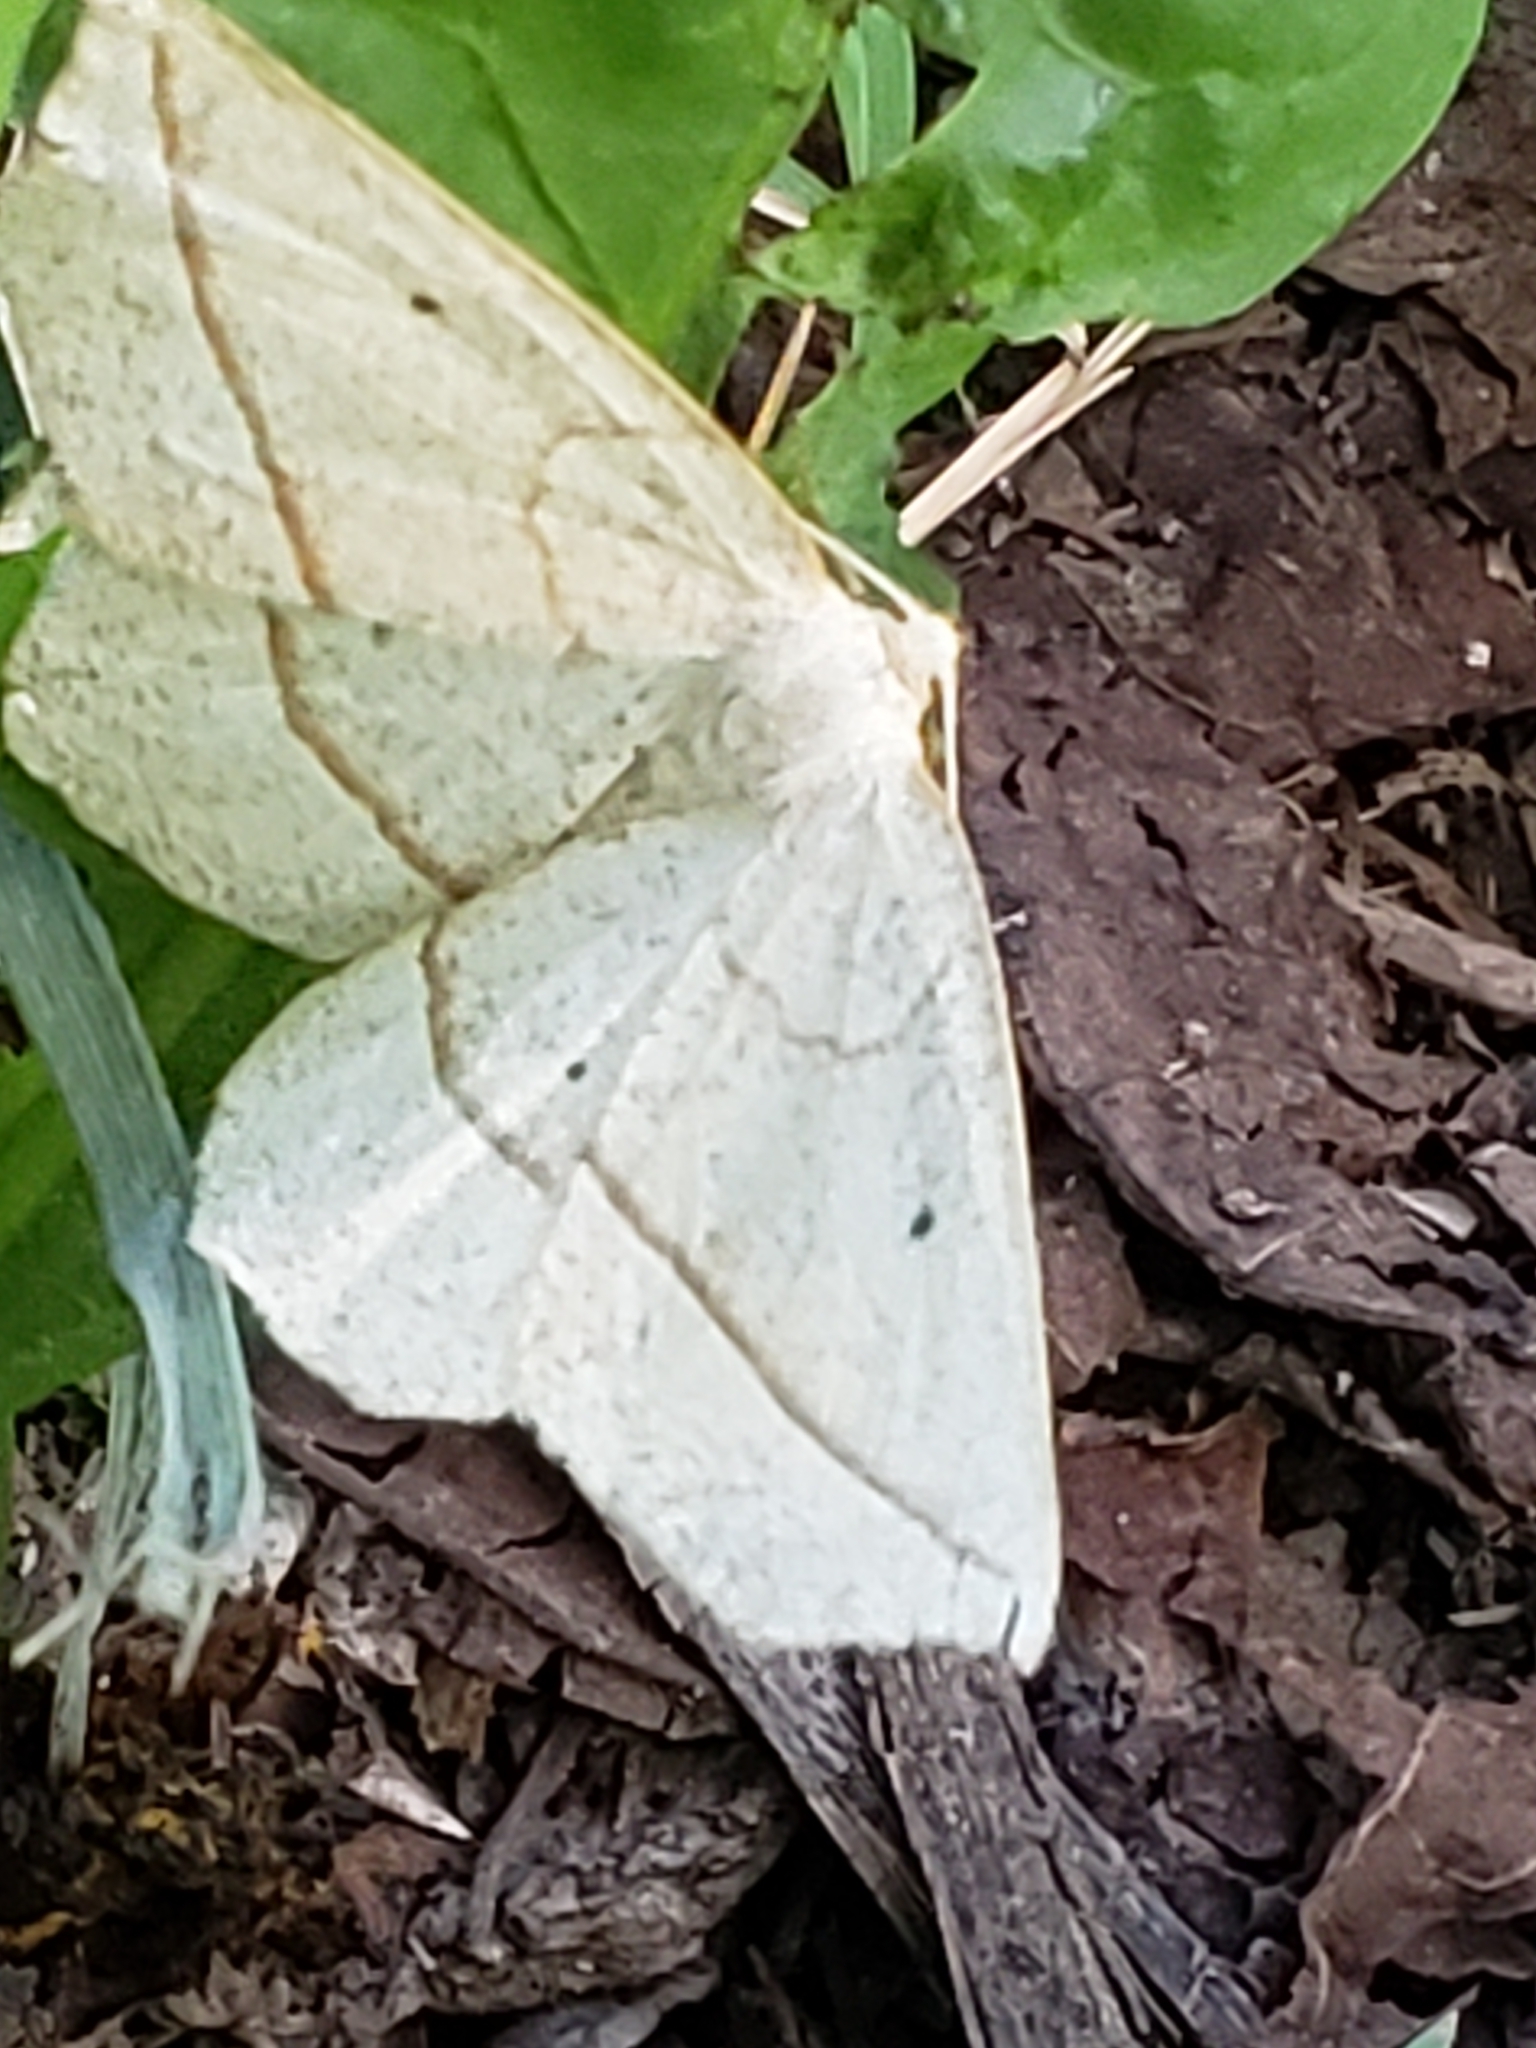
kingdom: Animalia
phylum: Arthropoda
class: Insecta
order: Lepidoptera
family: Geometridae
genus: Eusarca
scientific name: Eusarca confusaria
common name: Confused eusarca
